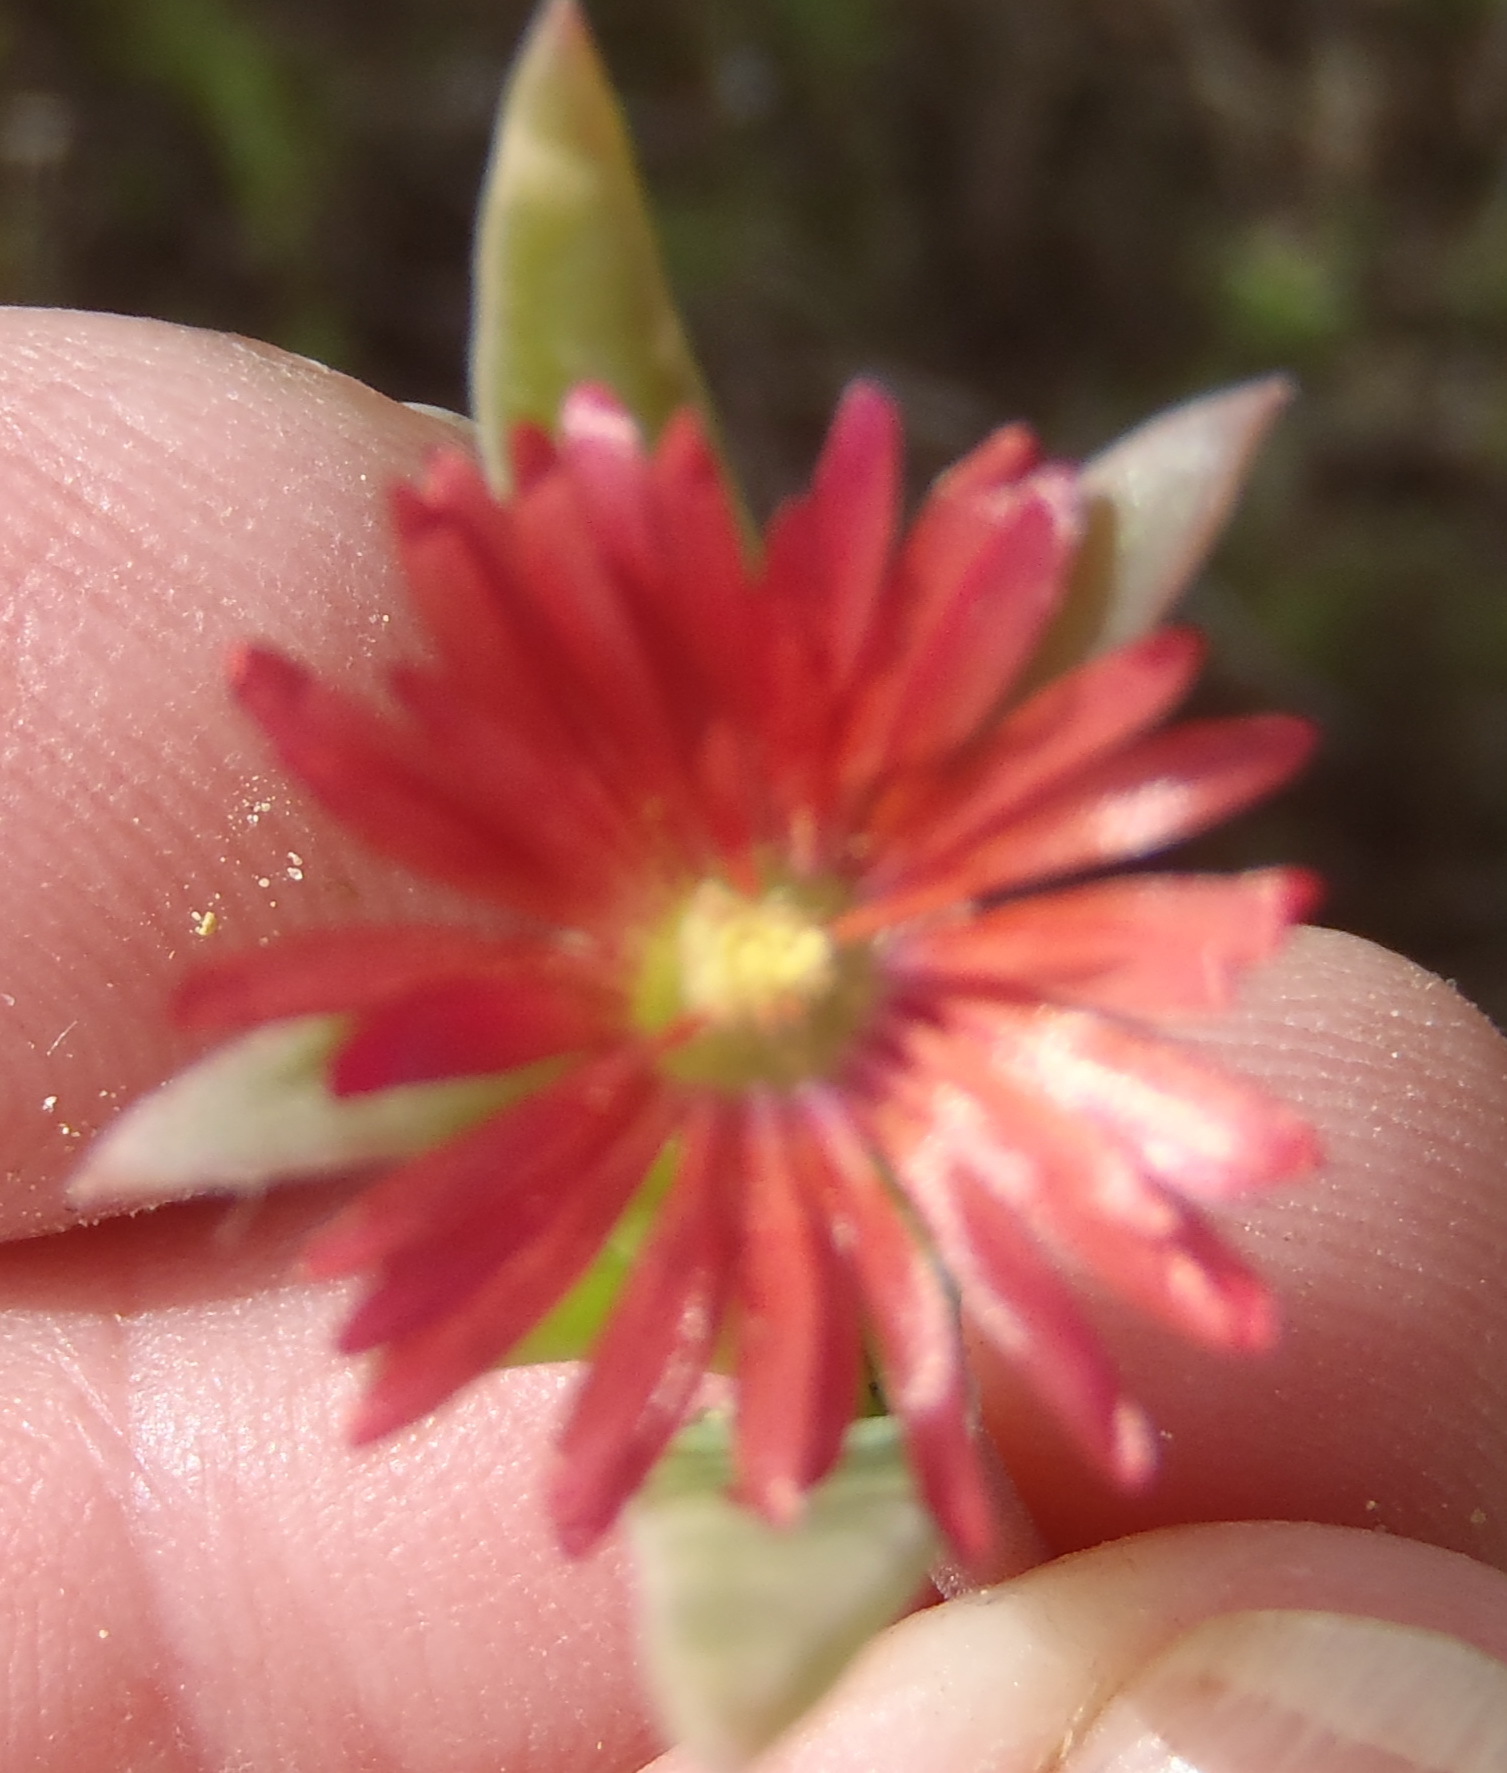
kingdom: Plantae
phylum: Tracheophyta
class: Magnoliopsida
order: Caryophyllales
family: Aizoaceae
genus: Delosperma
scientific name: Delosperma acuminatum
